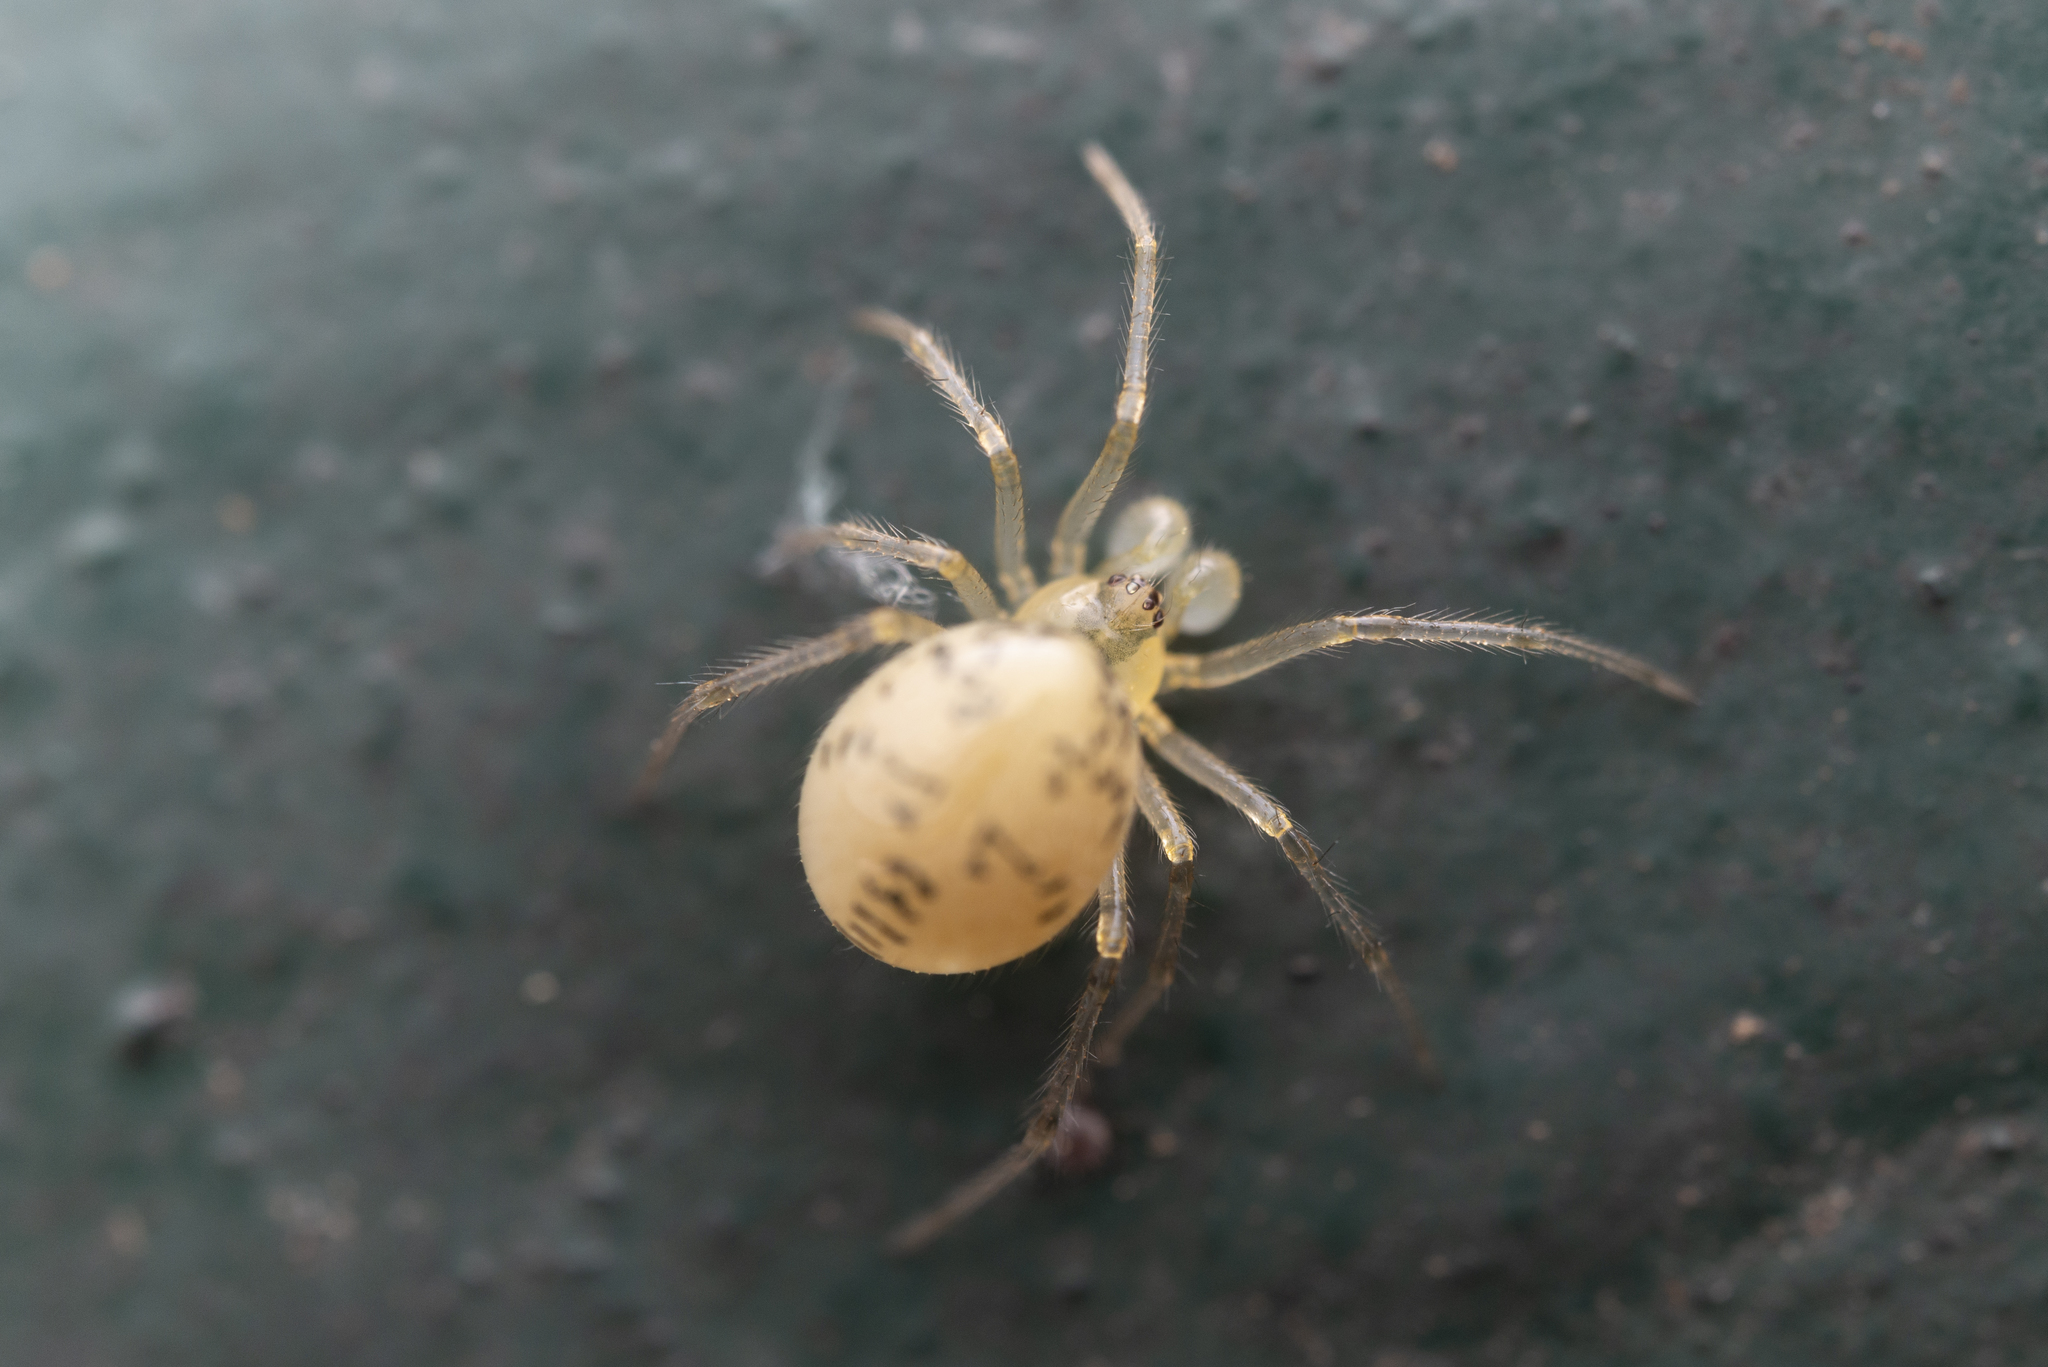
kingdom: Animalia
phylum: Arthropoda
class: Arachnida
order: Araneae
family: Theridiidae
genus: Phycosoma
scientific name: Phycosoma digitula
